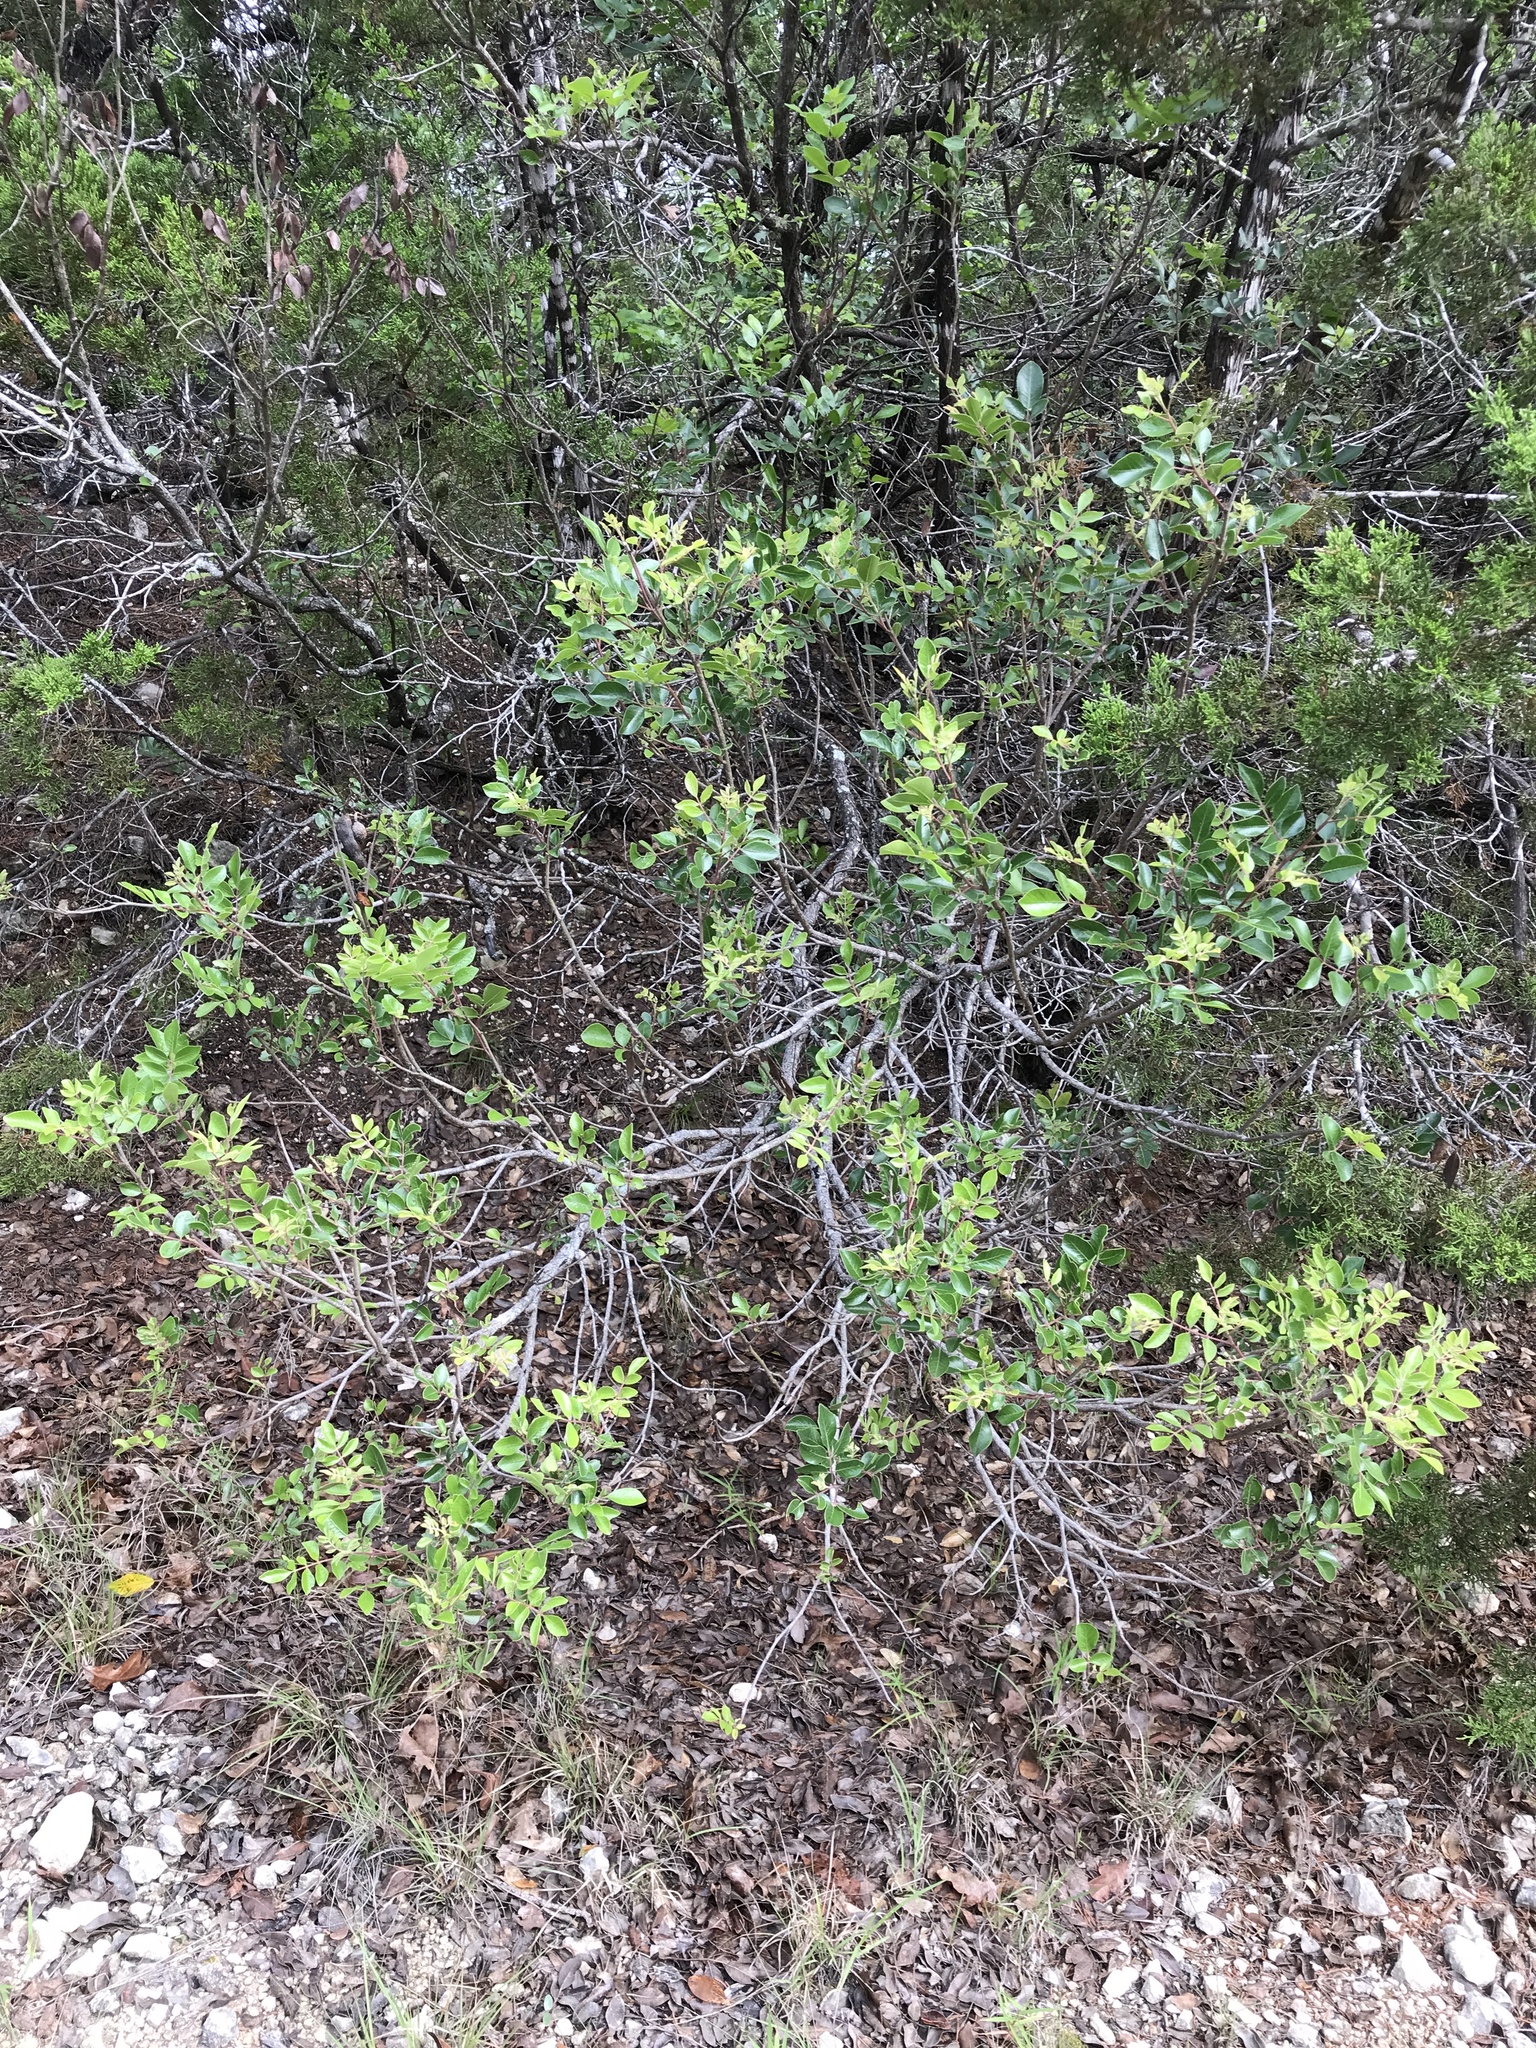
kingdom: Plantae
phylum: Tracheophyta
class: Magnoliopsida
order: Sapindales
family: Anacardiaceae
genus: Rhus
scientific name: Rhus virens
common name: Evergreen sumac
